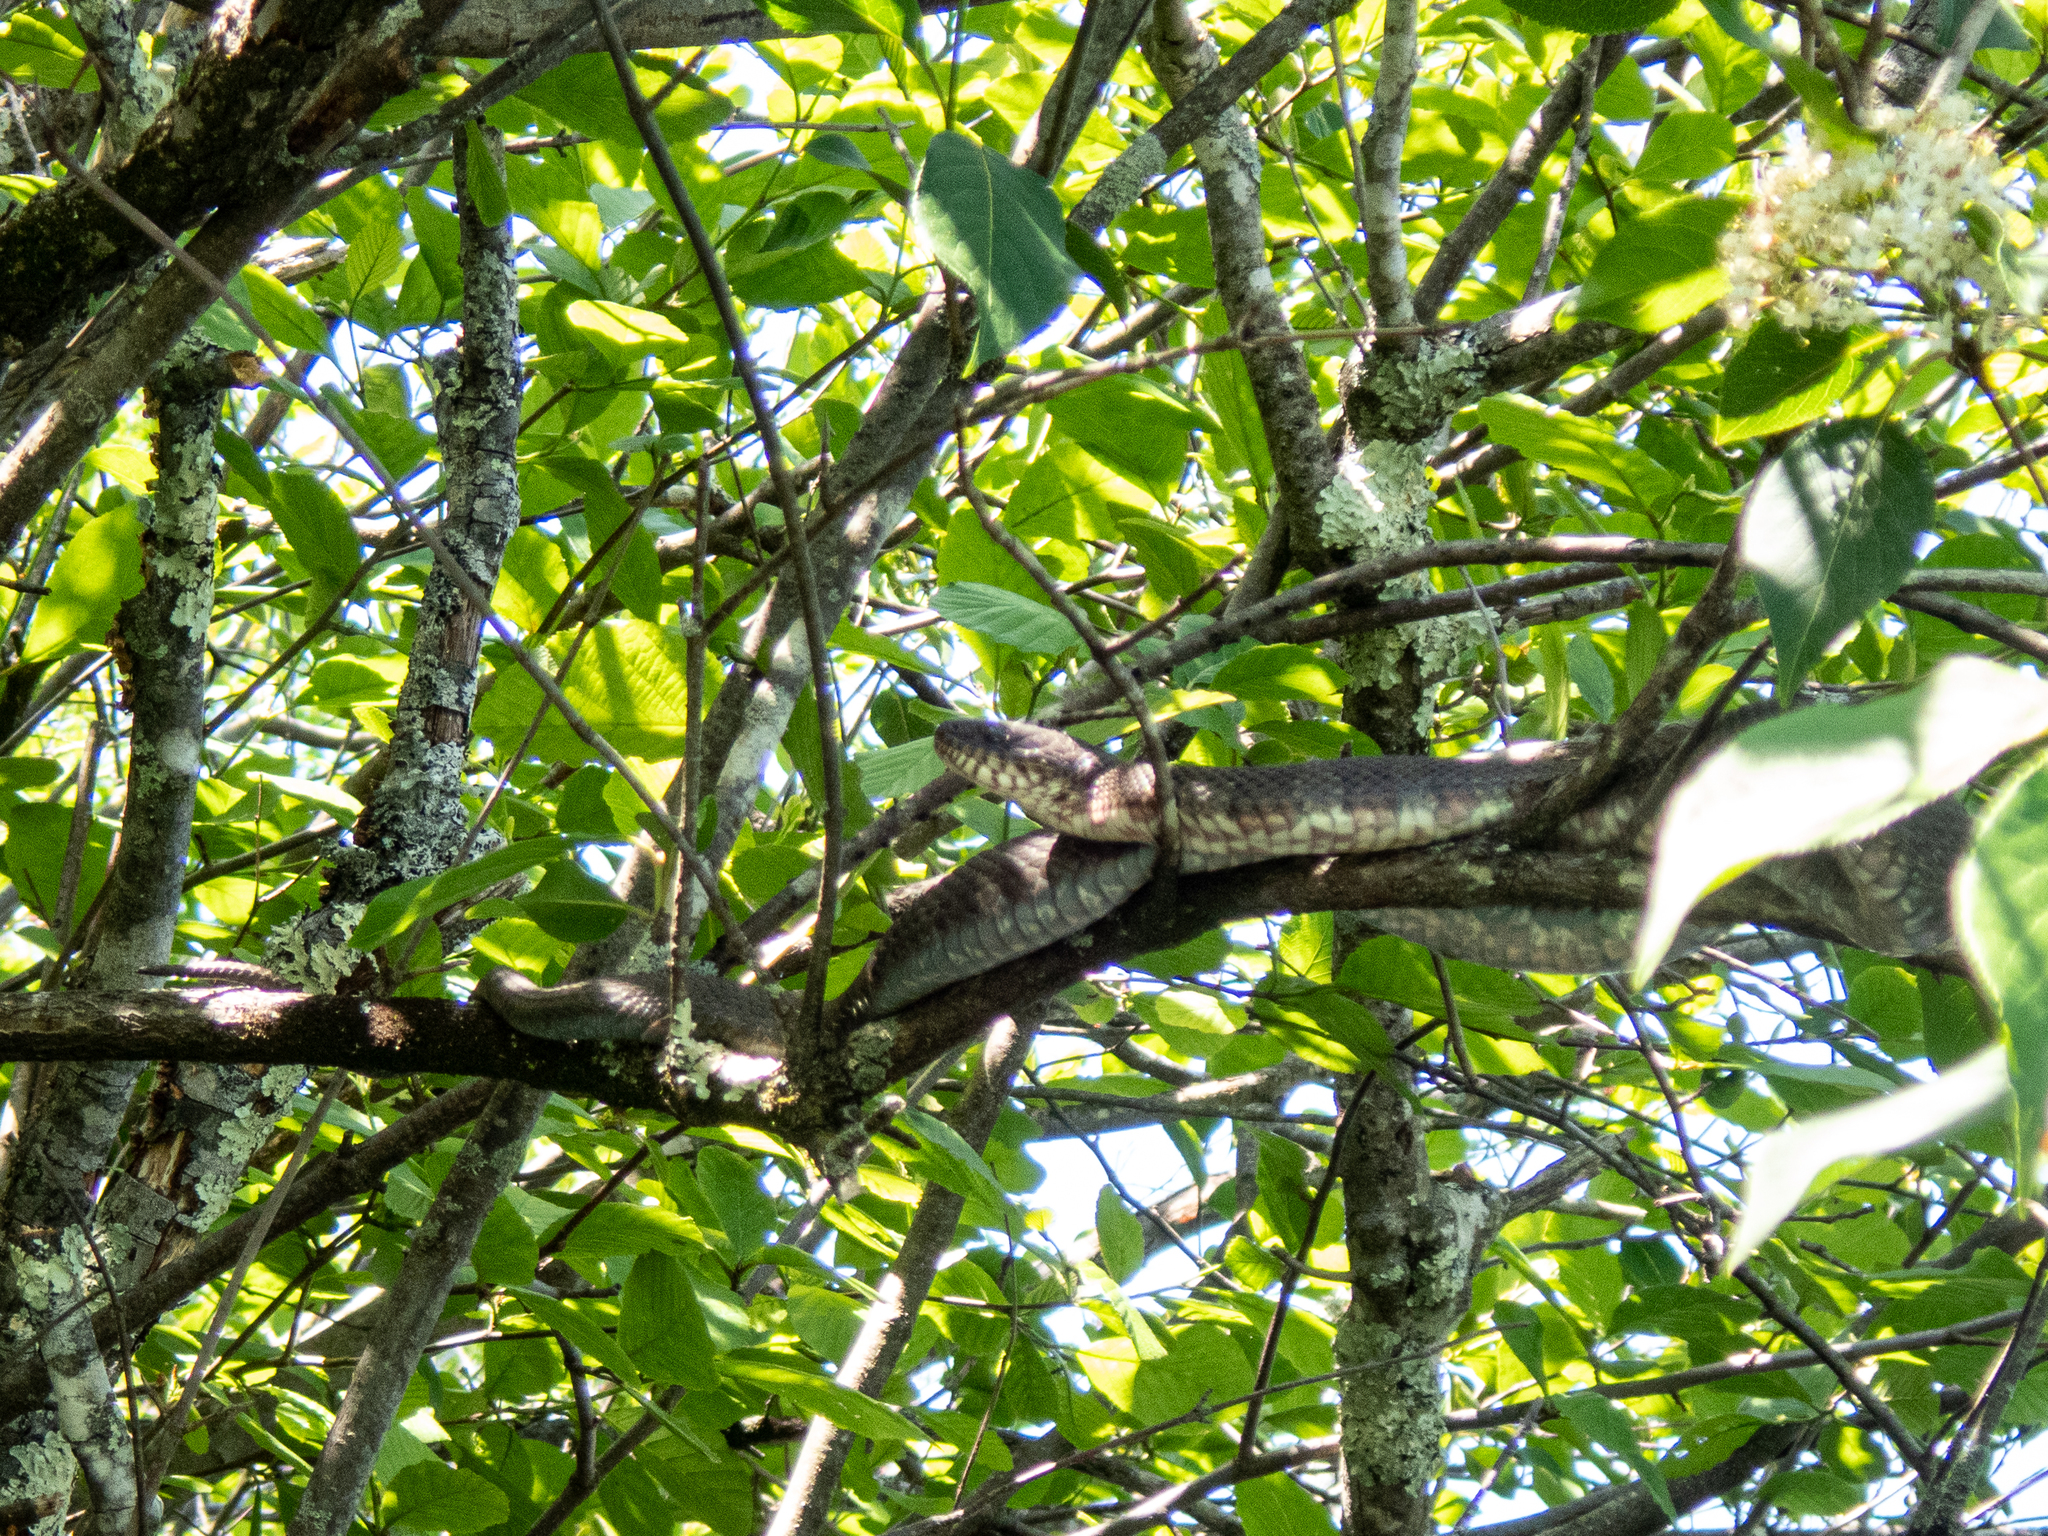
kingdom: Animalia
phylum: Chordata
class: Squamata
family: Colubridae
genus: Nerodia
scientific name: Nerodia sipedon
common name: Northern water snake
